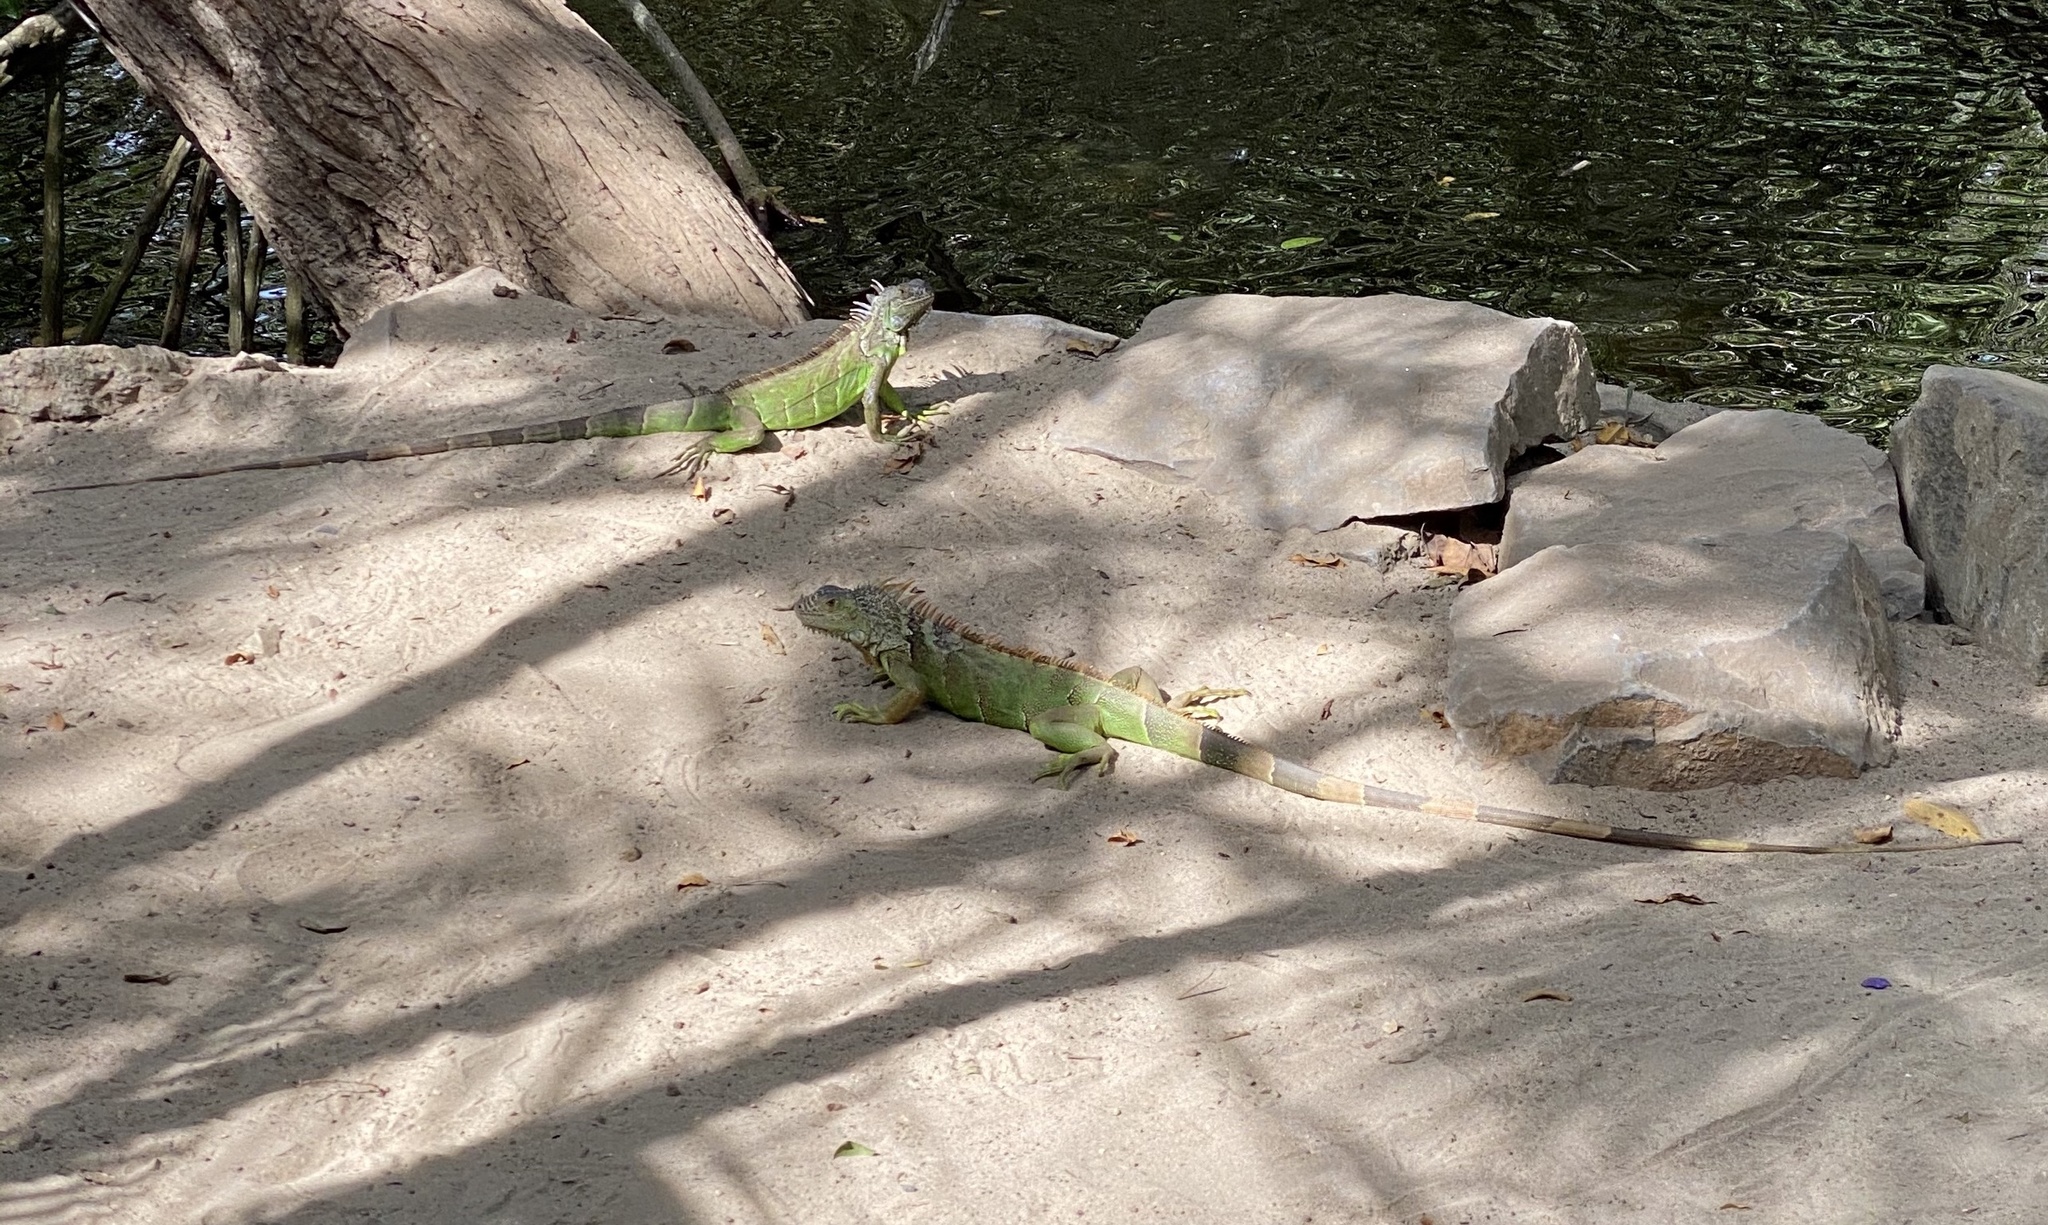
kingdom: Animalia
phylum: Chordata
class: Squamata
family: Iguanidae
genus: Iguana
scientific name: Iguana iguana
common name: Green iguana
